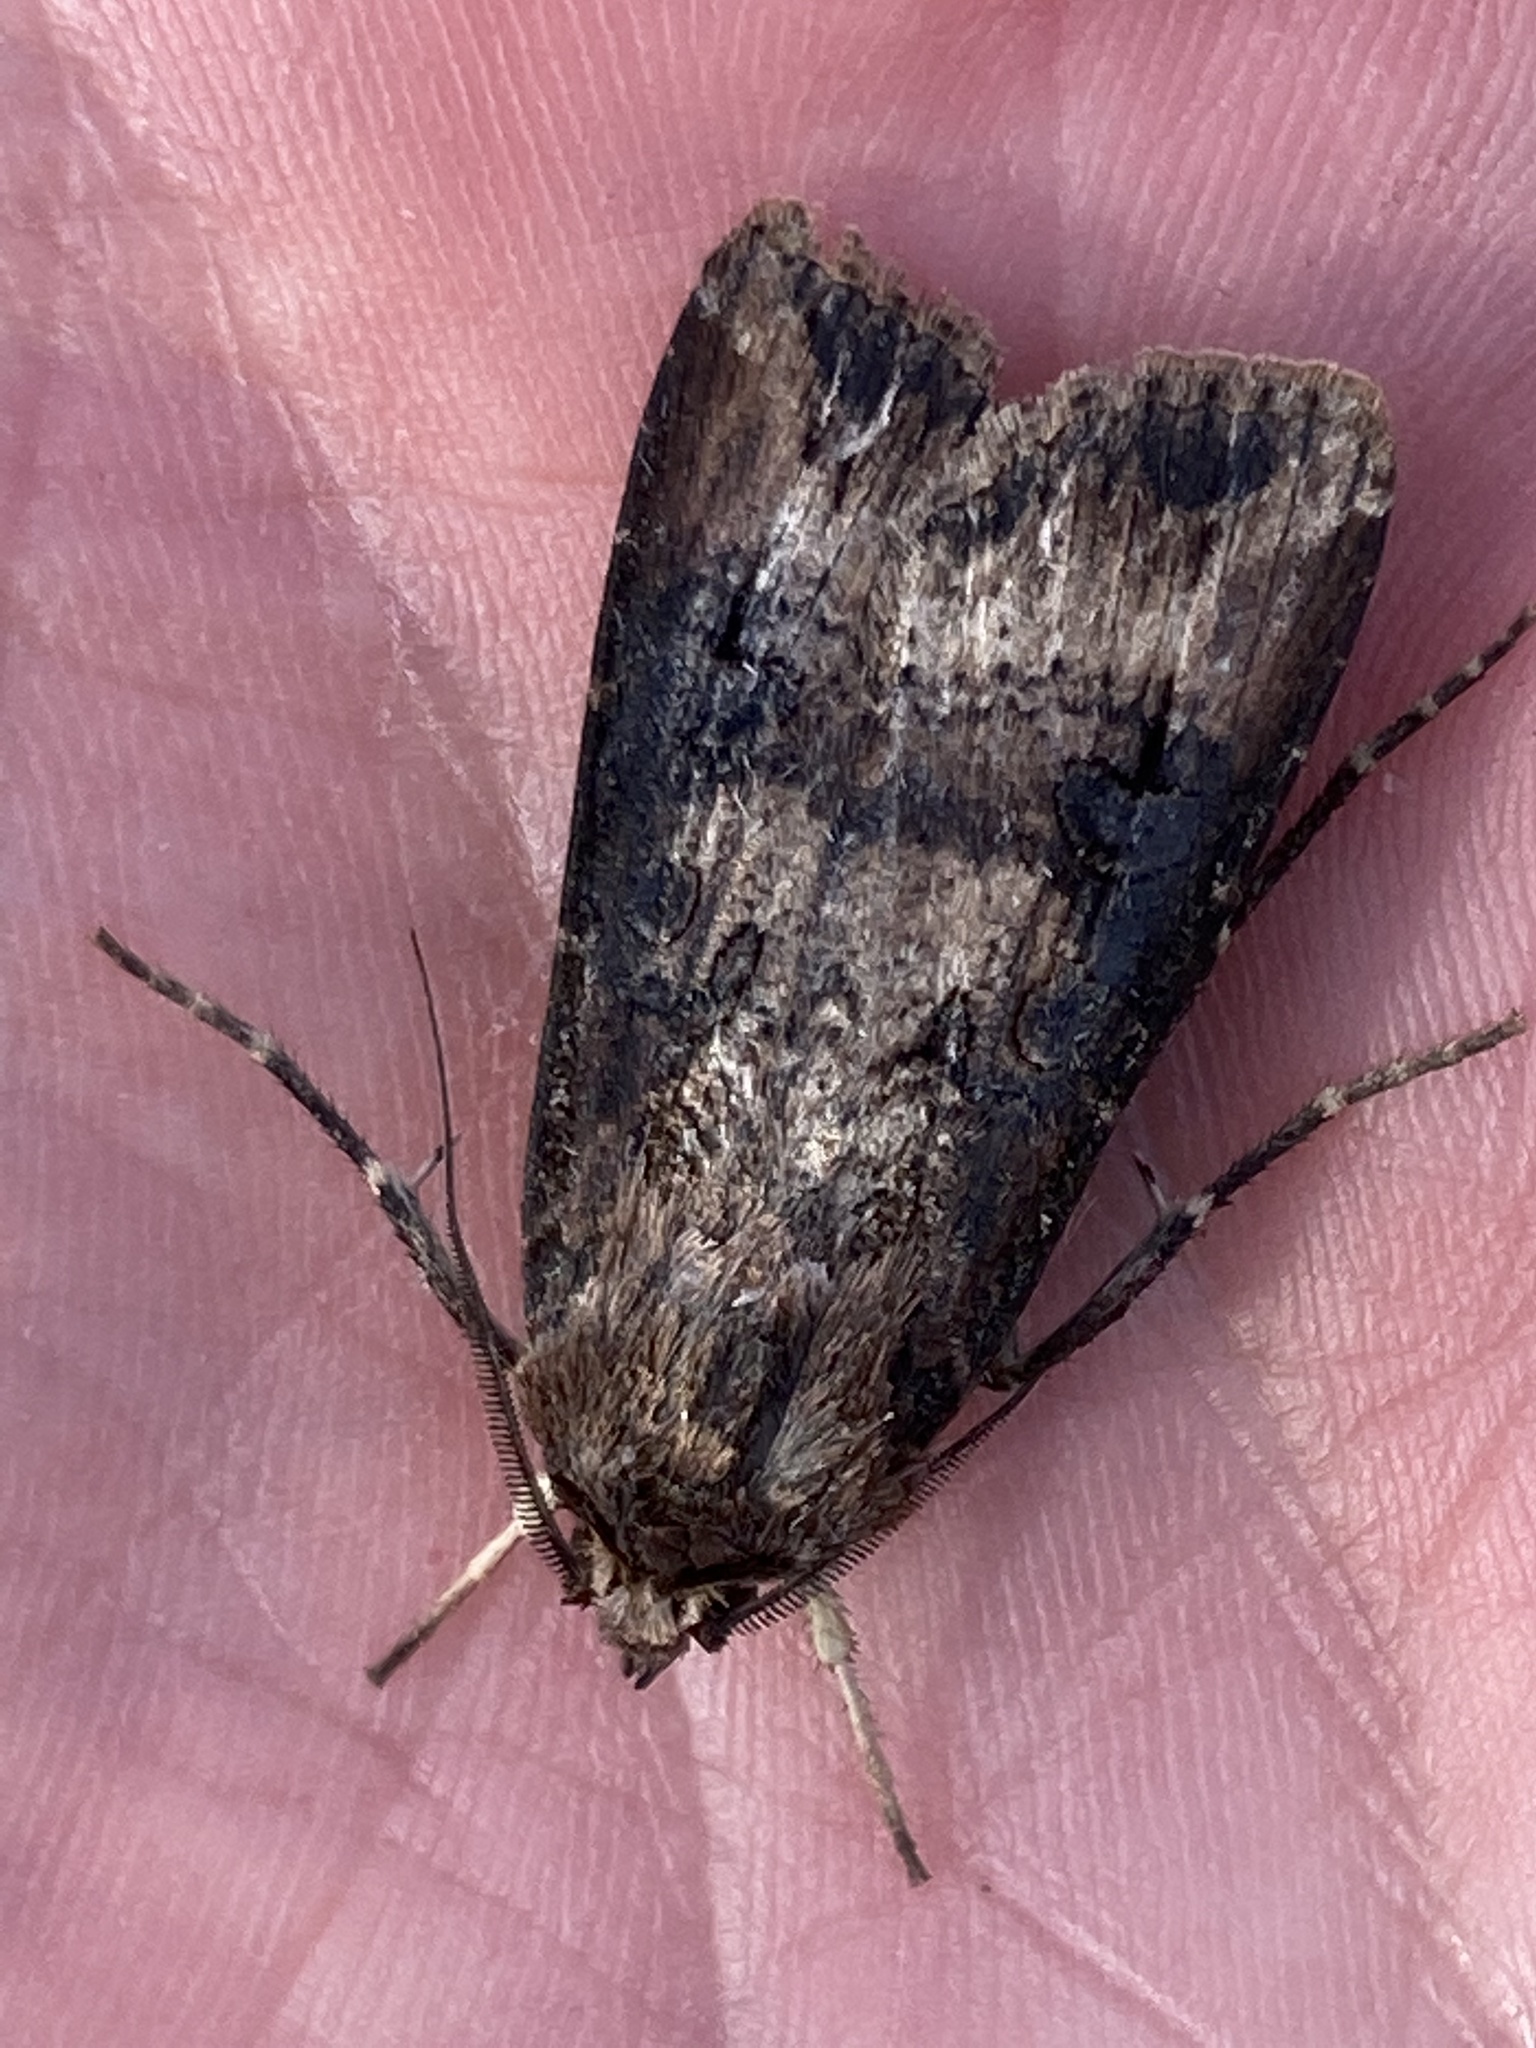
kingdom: Animalia
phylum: Arthropoda
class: Insecta
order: Lepidoptera
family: Noctuidae
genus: Agrotis
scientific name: Agrotis ipsilon
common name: Dark sword-grass
